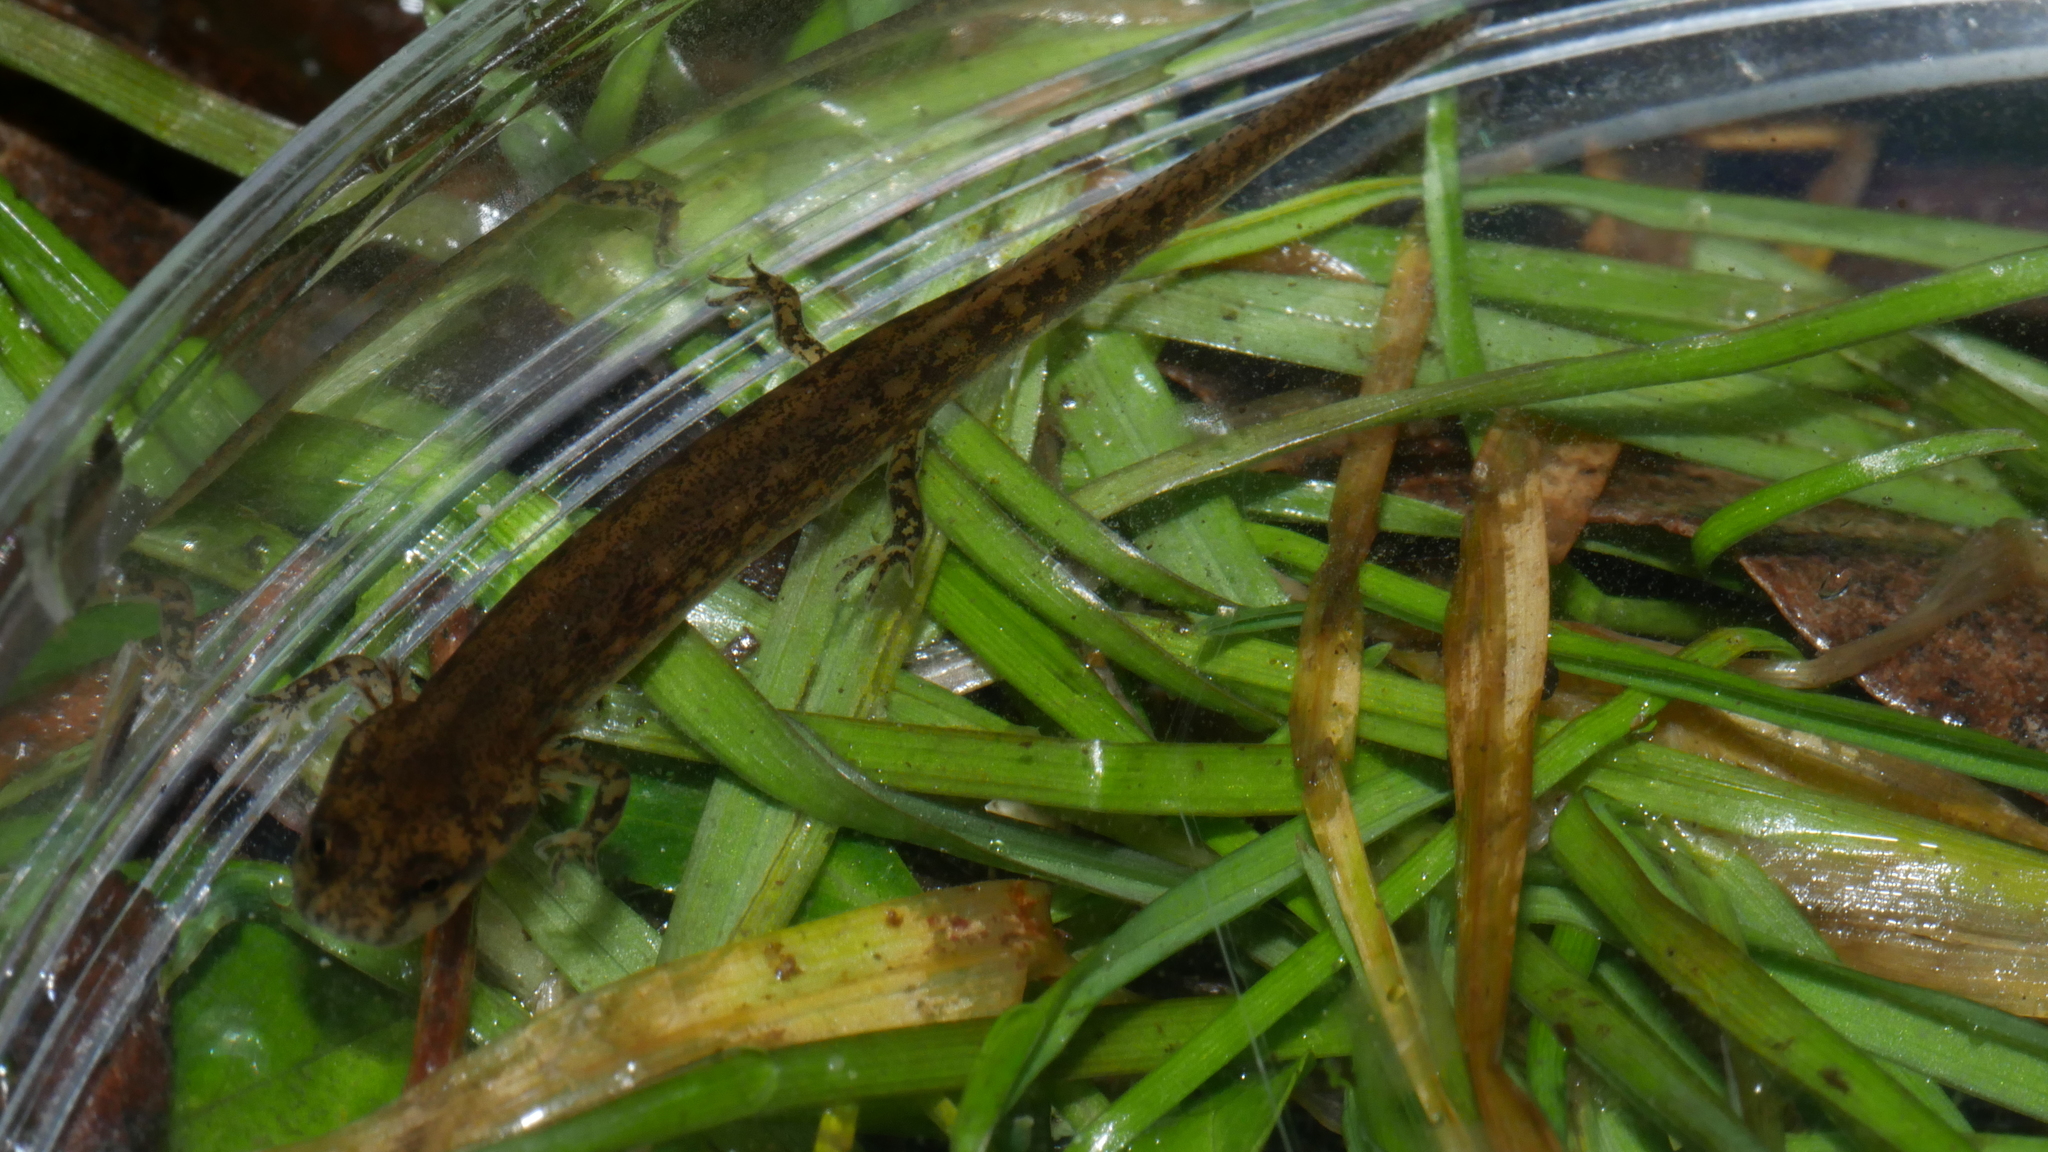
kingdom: Animalia
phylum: Chordata
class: Amphibia
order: Caudata
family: Plethodontidae
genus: Eurycea
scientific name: Eurycea cirrigera
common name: Southern two-lined salamander
